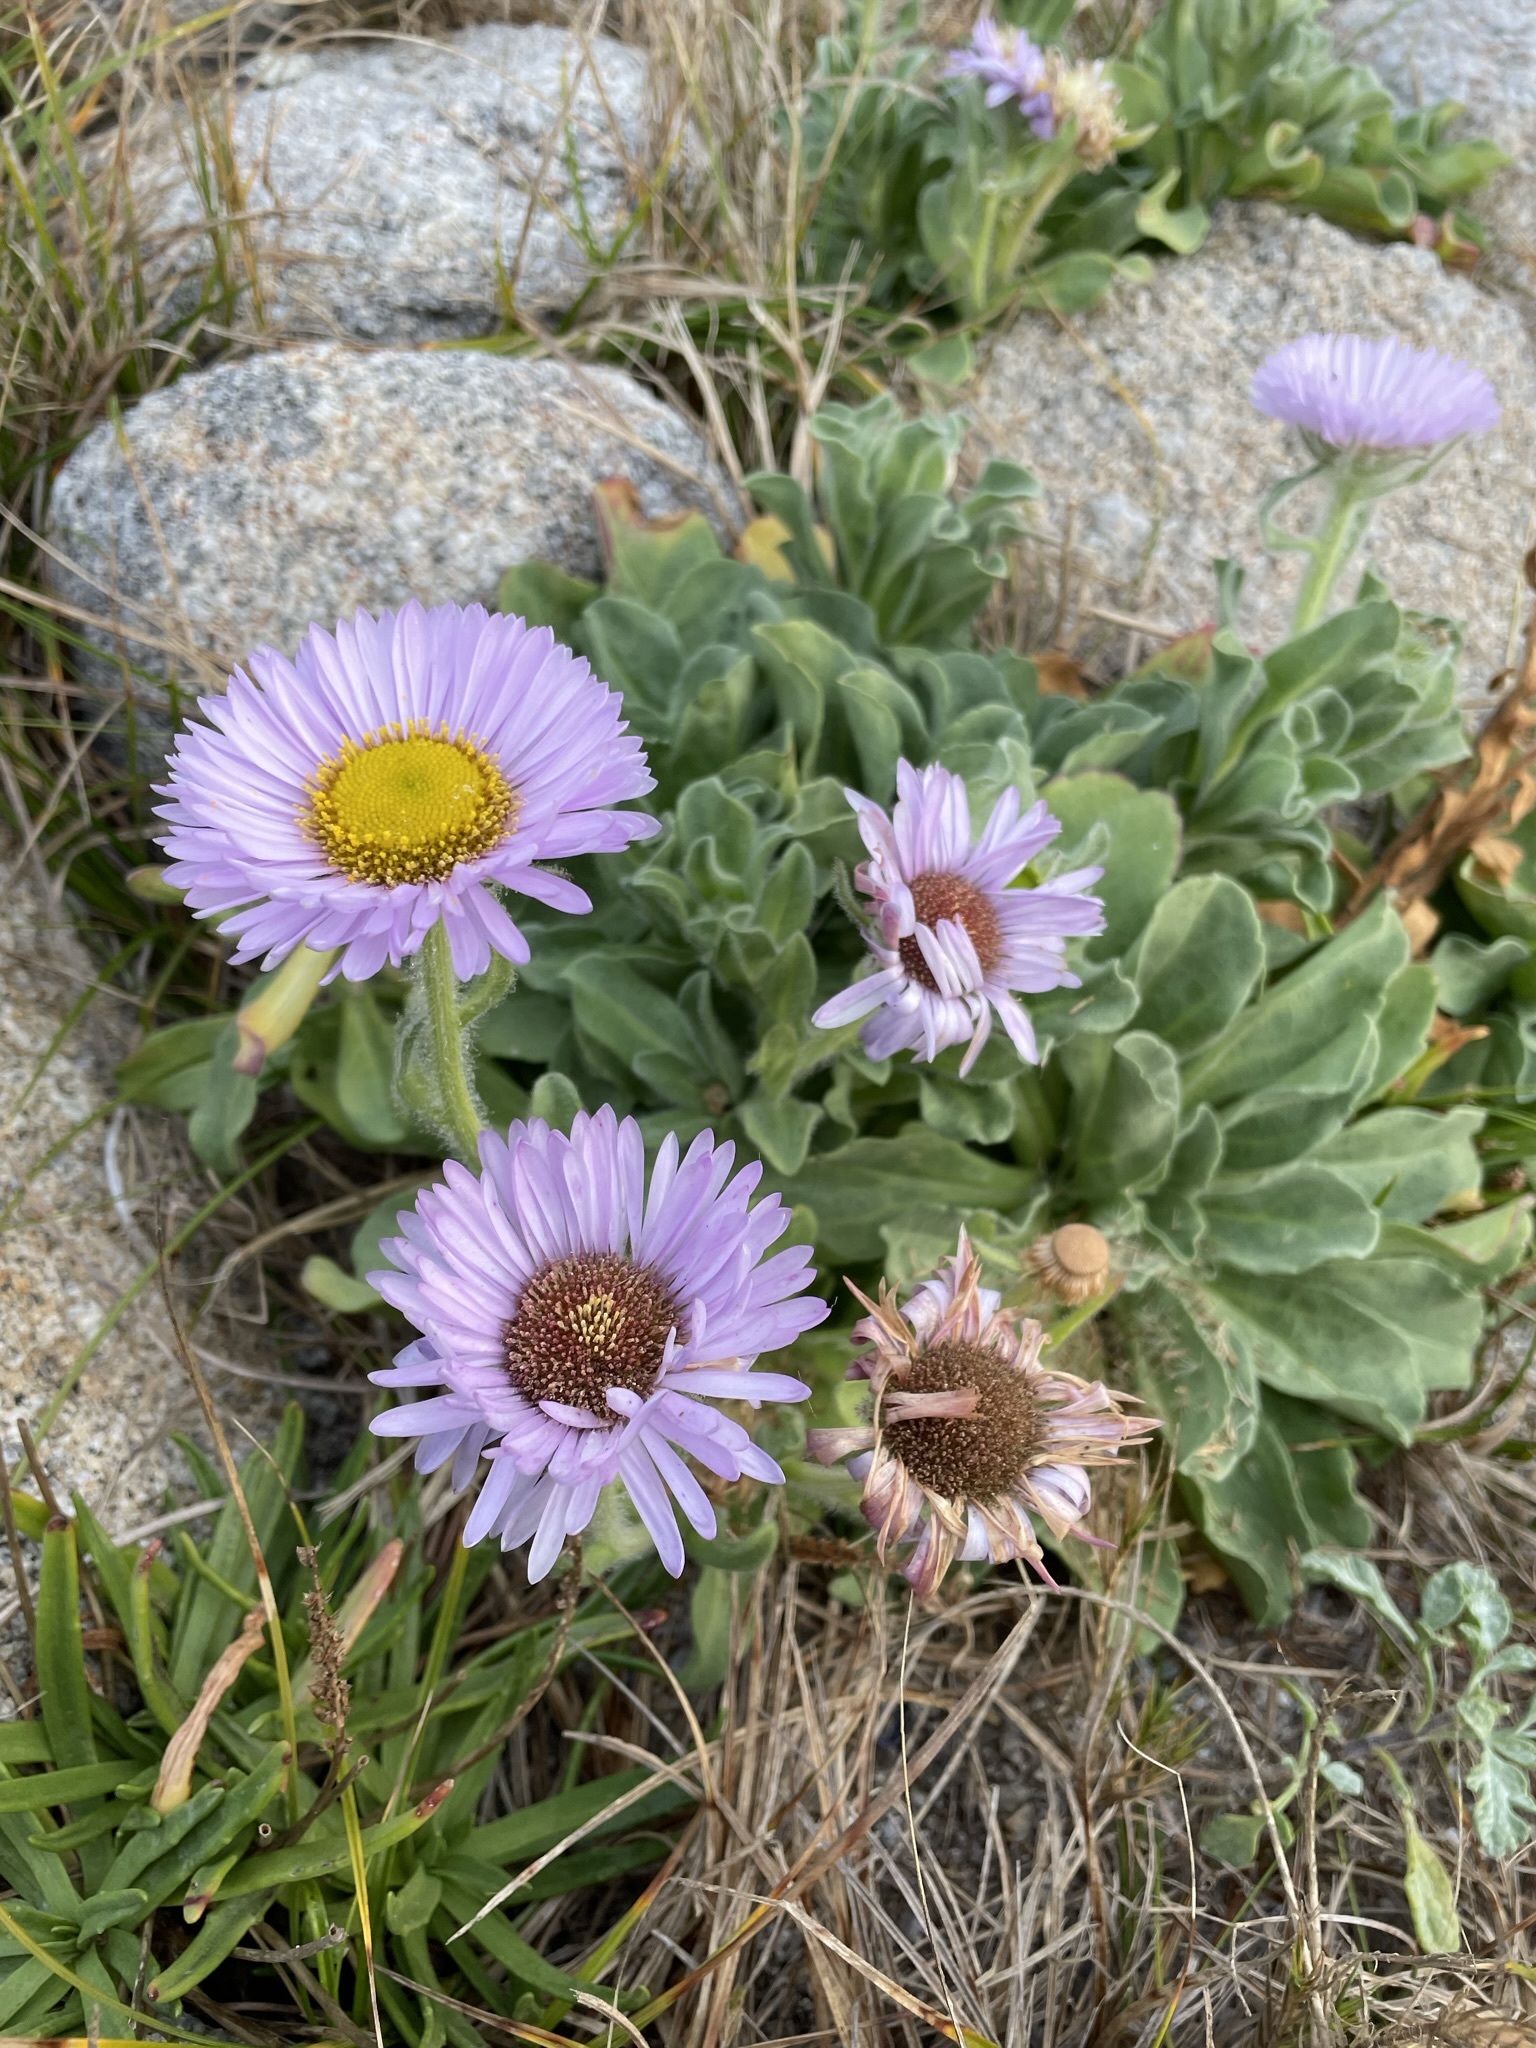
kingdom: Plantae
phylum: Tracheophyta
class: Magnoliopsida
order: Asterales
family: Asteraceae
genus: Erigeron
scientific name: Erigeron glaucus
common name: Seaside daisy
